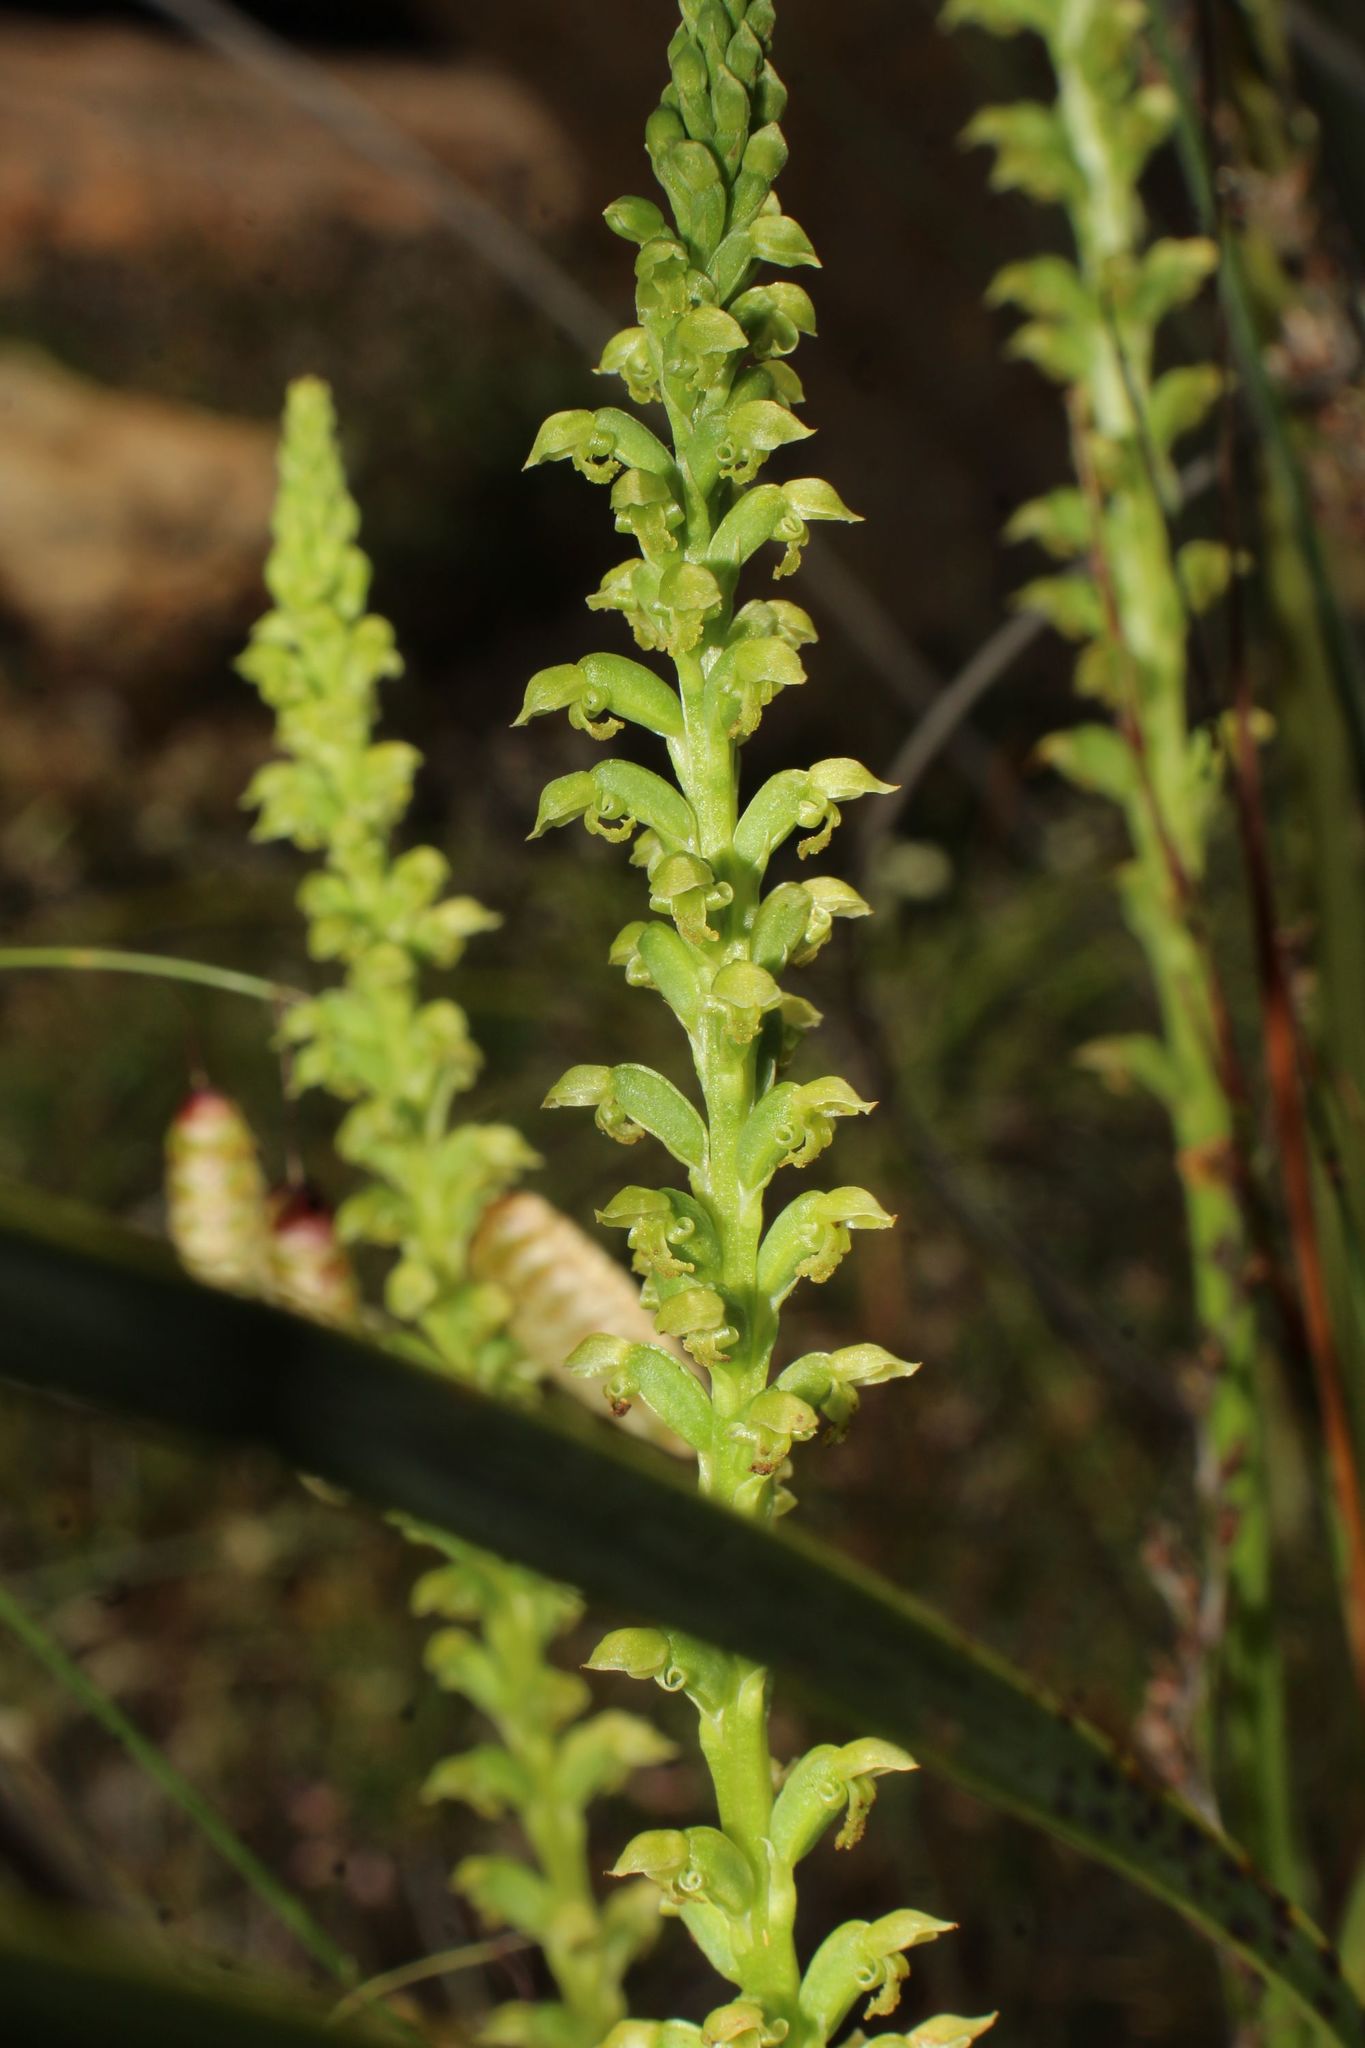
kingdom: Plantae
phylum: Tracheophyta
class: Liliopsida
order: Asparagales
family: Orchidaceae
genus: Microtis
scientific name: Microtis media
